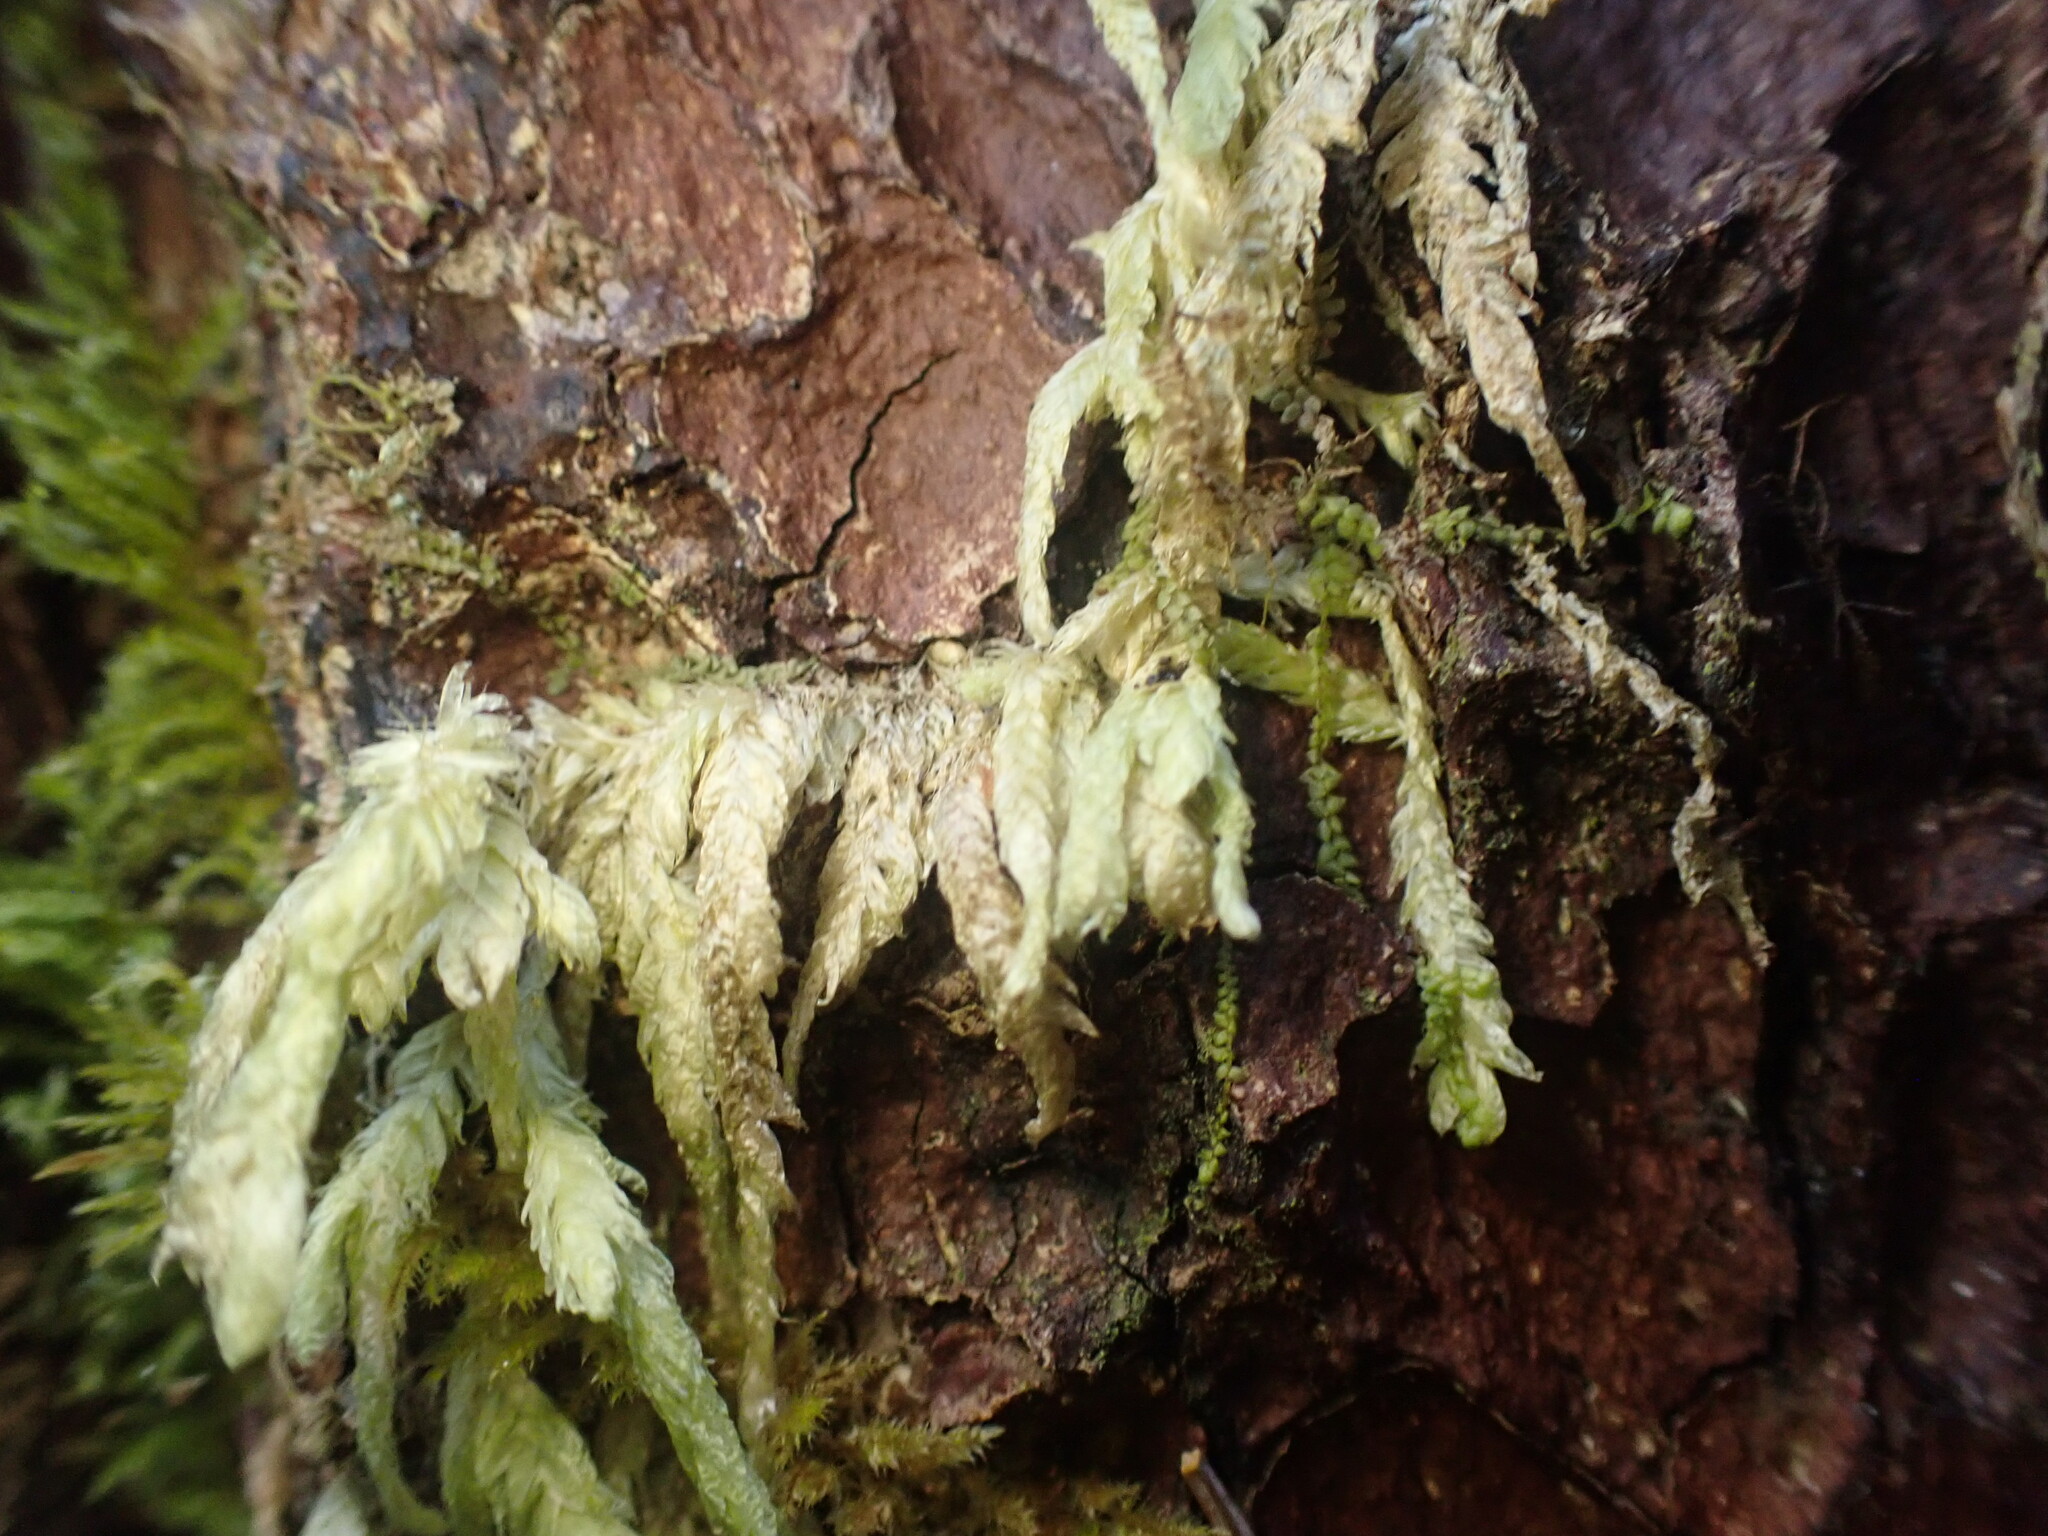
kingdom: Plantae
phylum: Bryophyta
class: Bryopsida
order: Hypnales
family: Plagiotheciaceae
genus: Plagiothecium
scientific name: Plagiothecium undulatum
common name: Waved silk-moss
